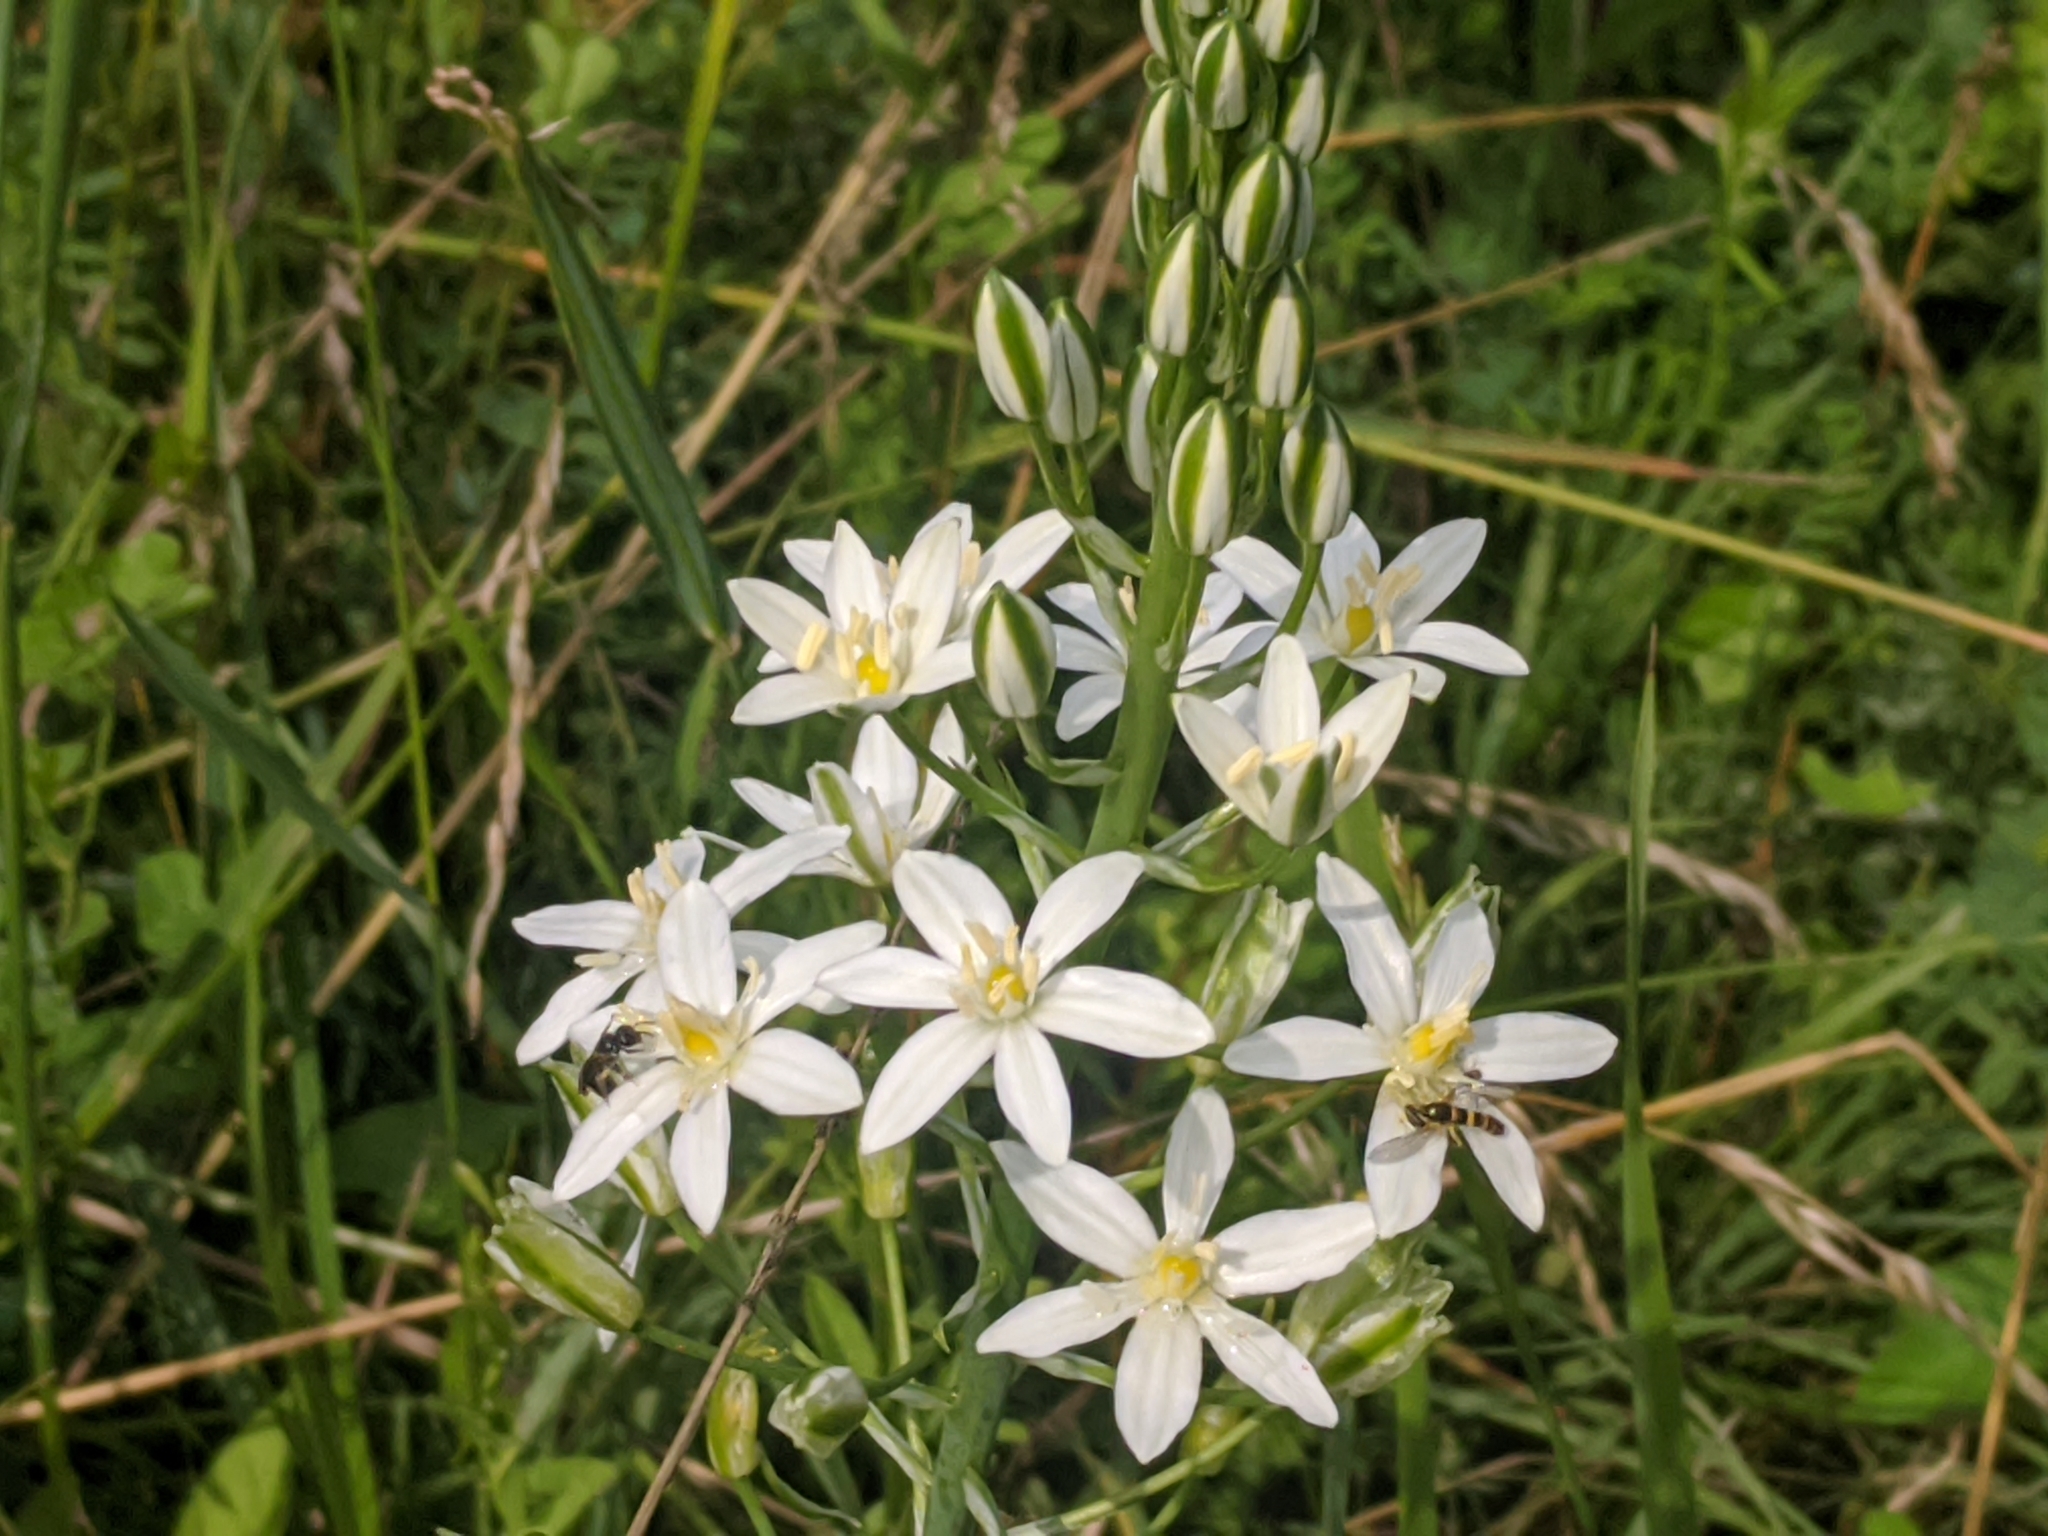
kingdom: Plantae
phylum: Tracheophyta
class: Liliopsida
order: Asparagales
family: Asparagaceae
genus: Ornithogalum
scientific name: Ornithogalum pyramidale
